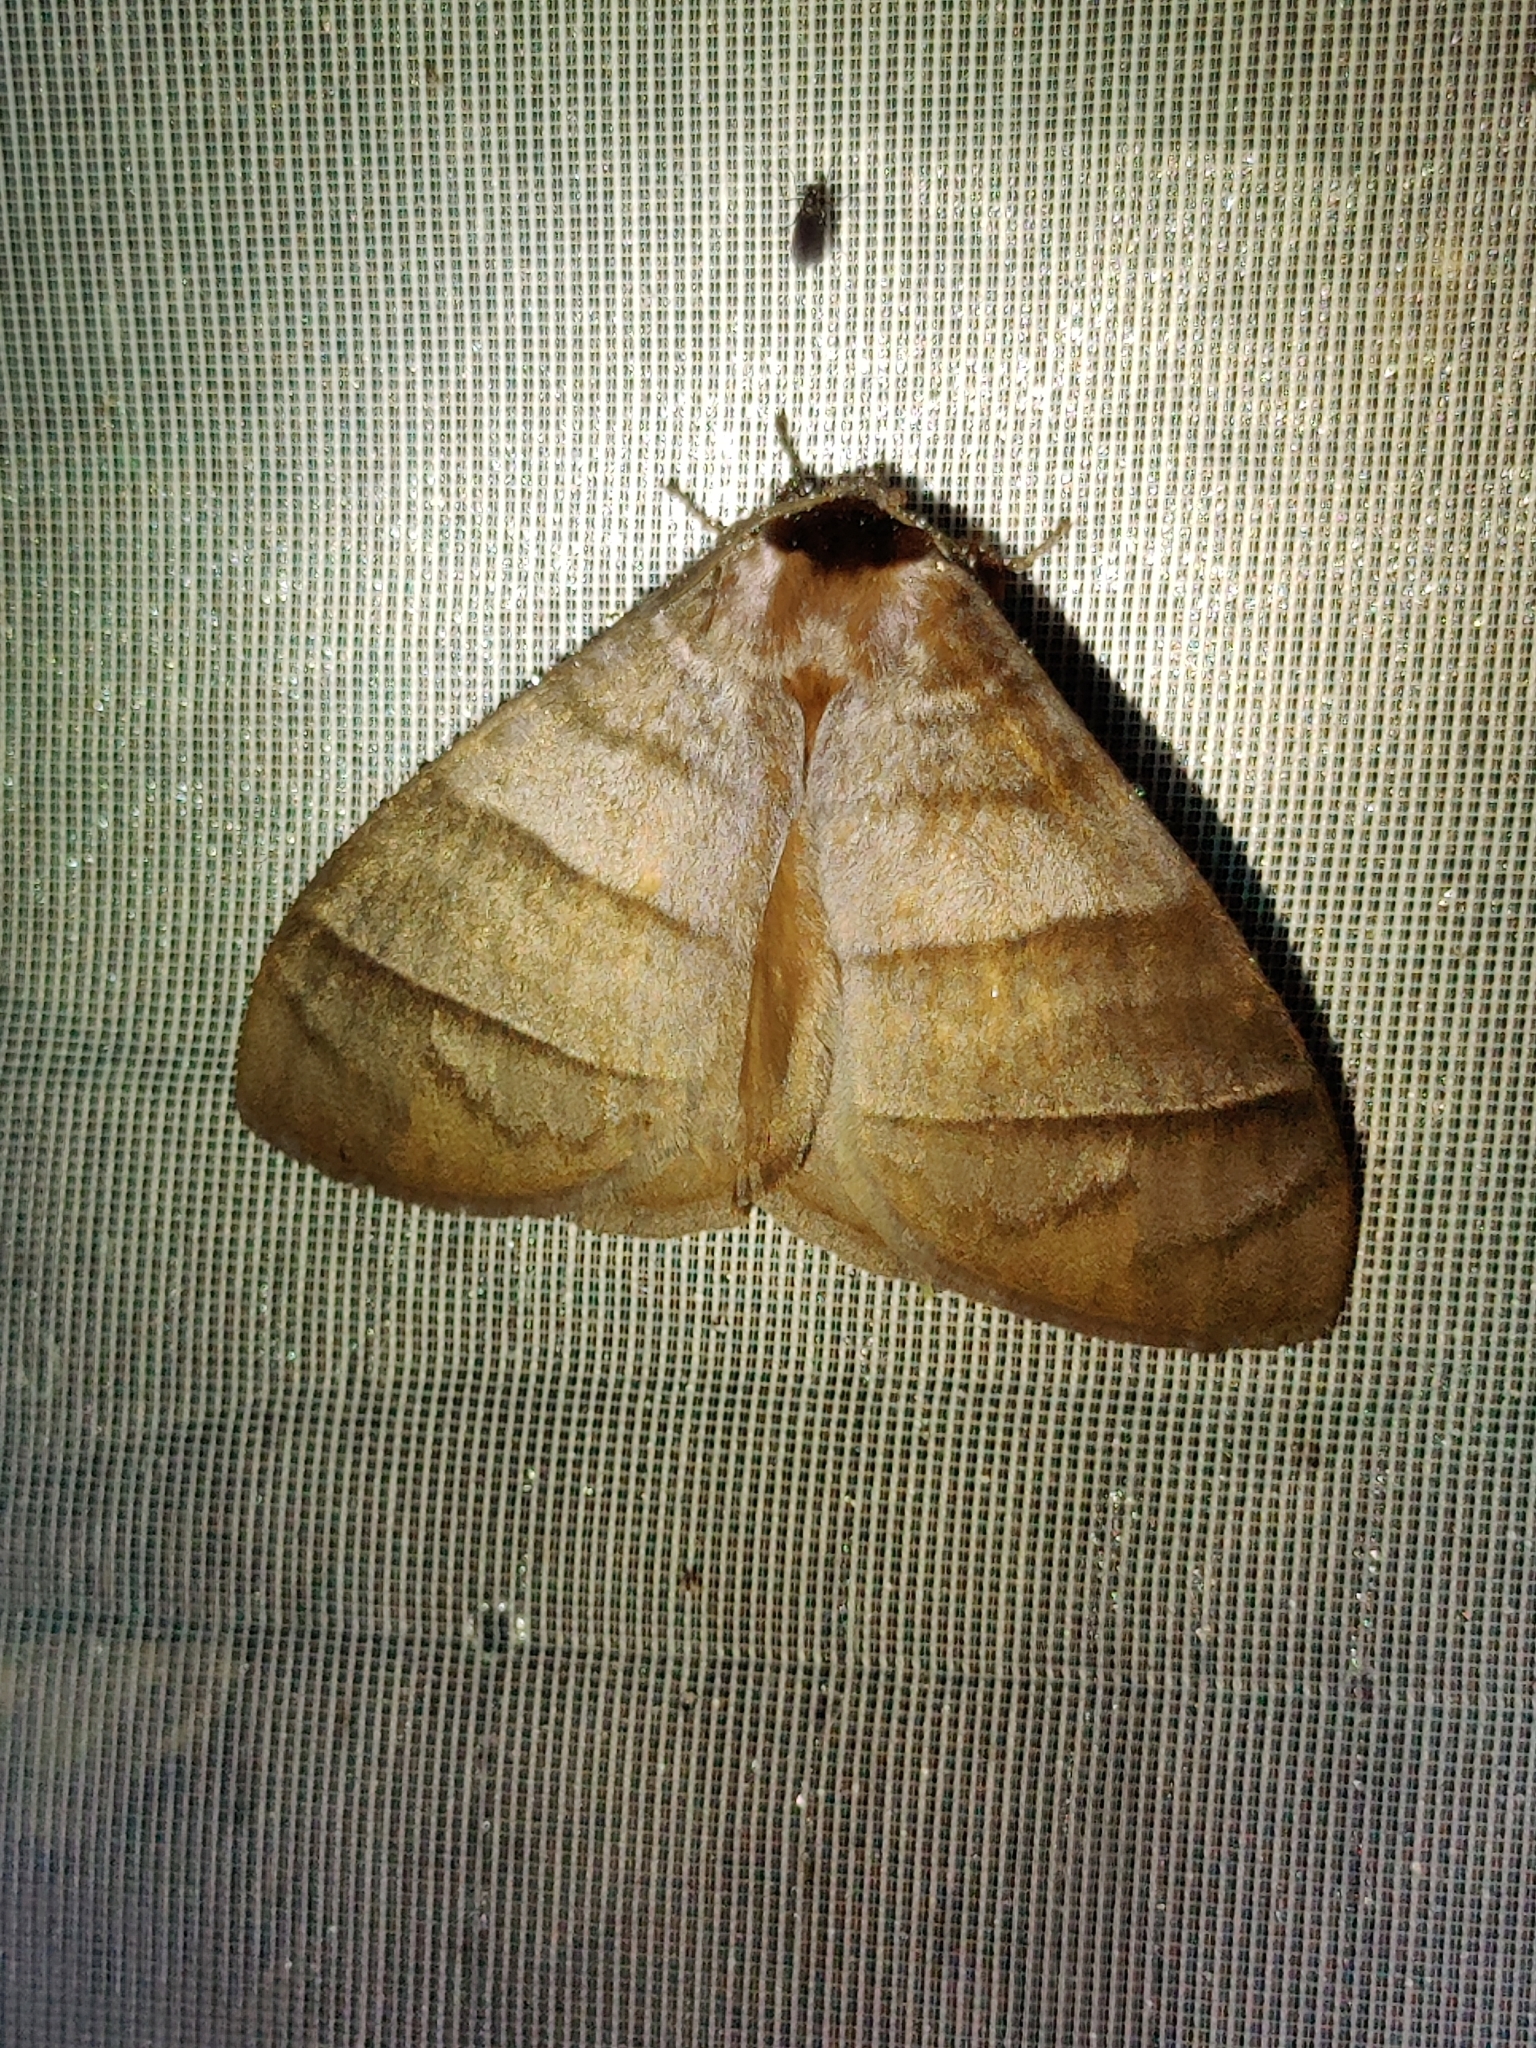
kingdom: Animalia
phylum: Arthropoda
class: Insecta
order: Lepidoptera
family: Eupterotidae
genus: Pseudojana
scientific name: Pseudojana
